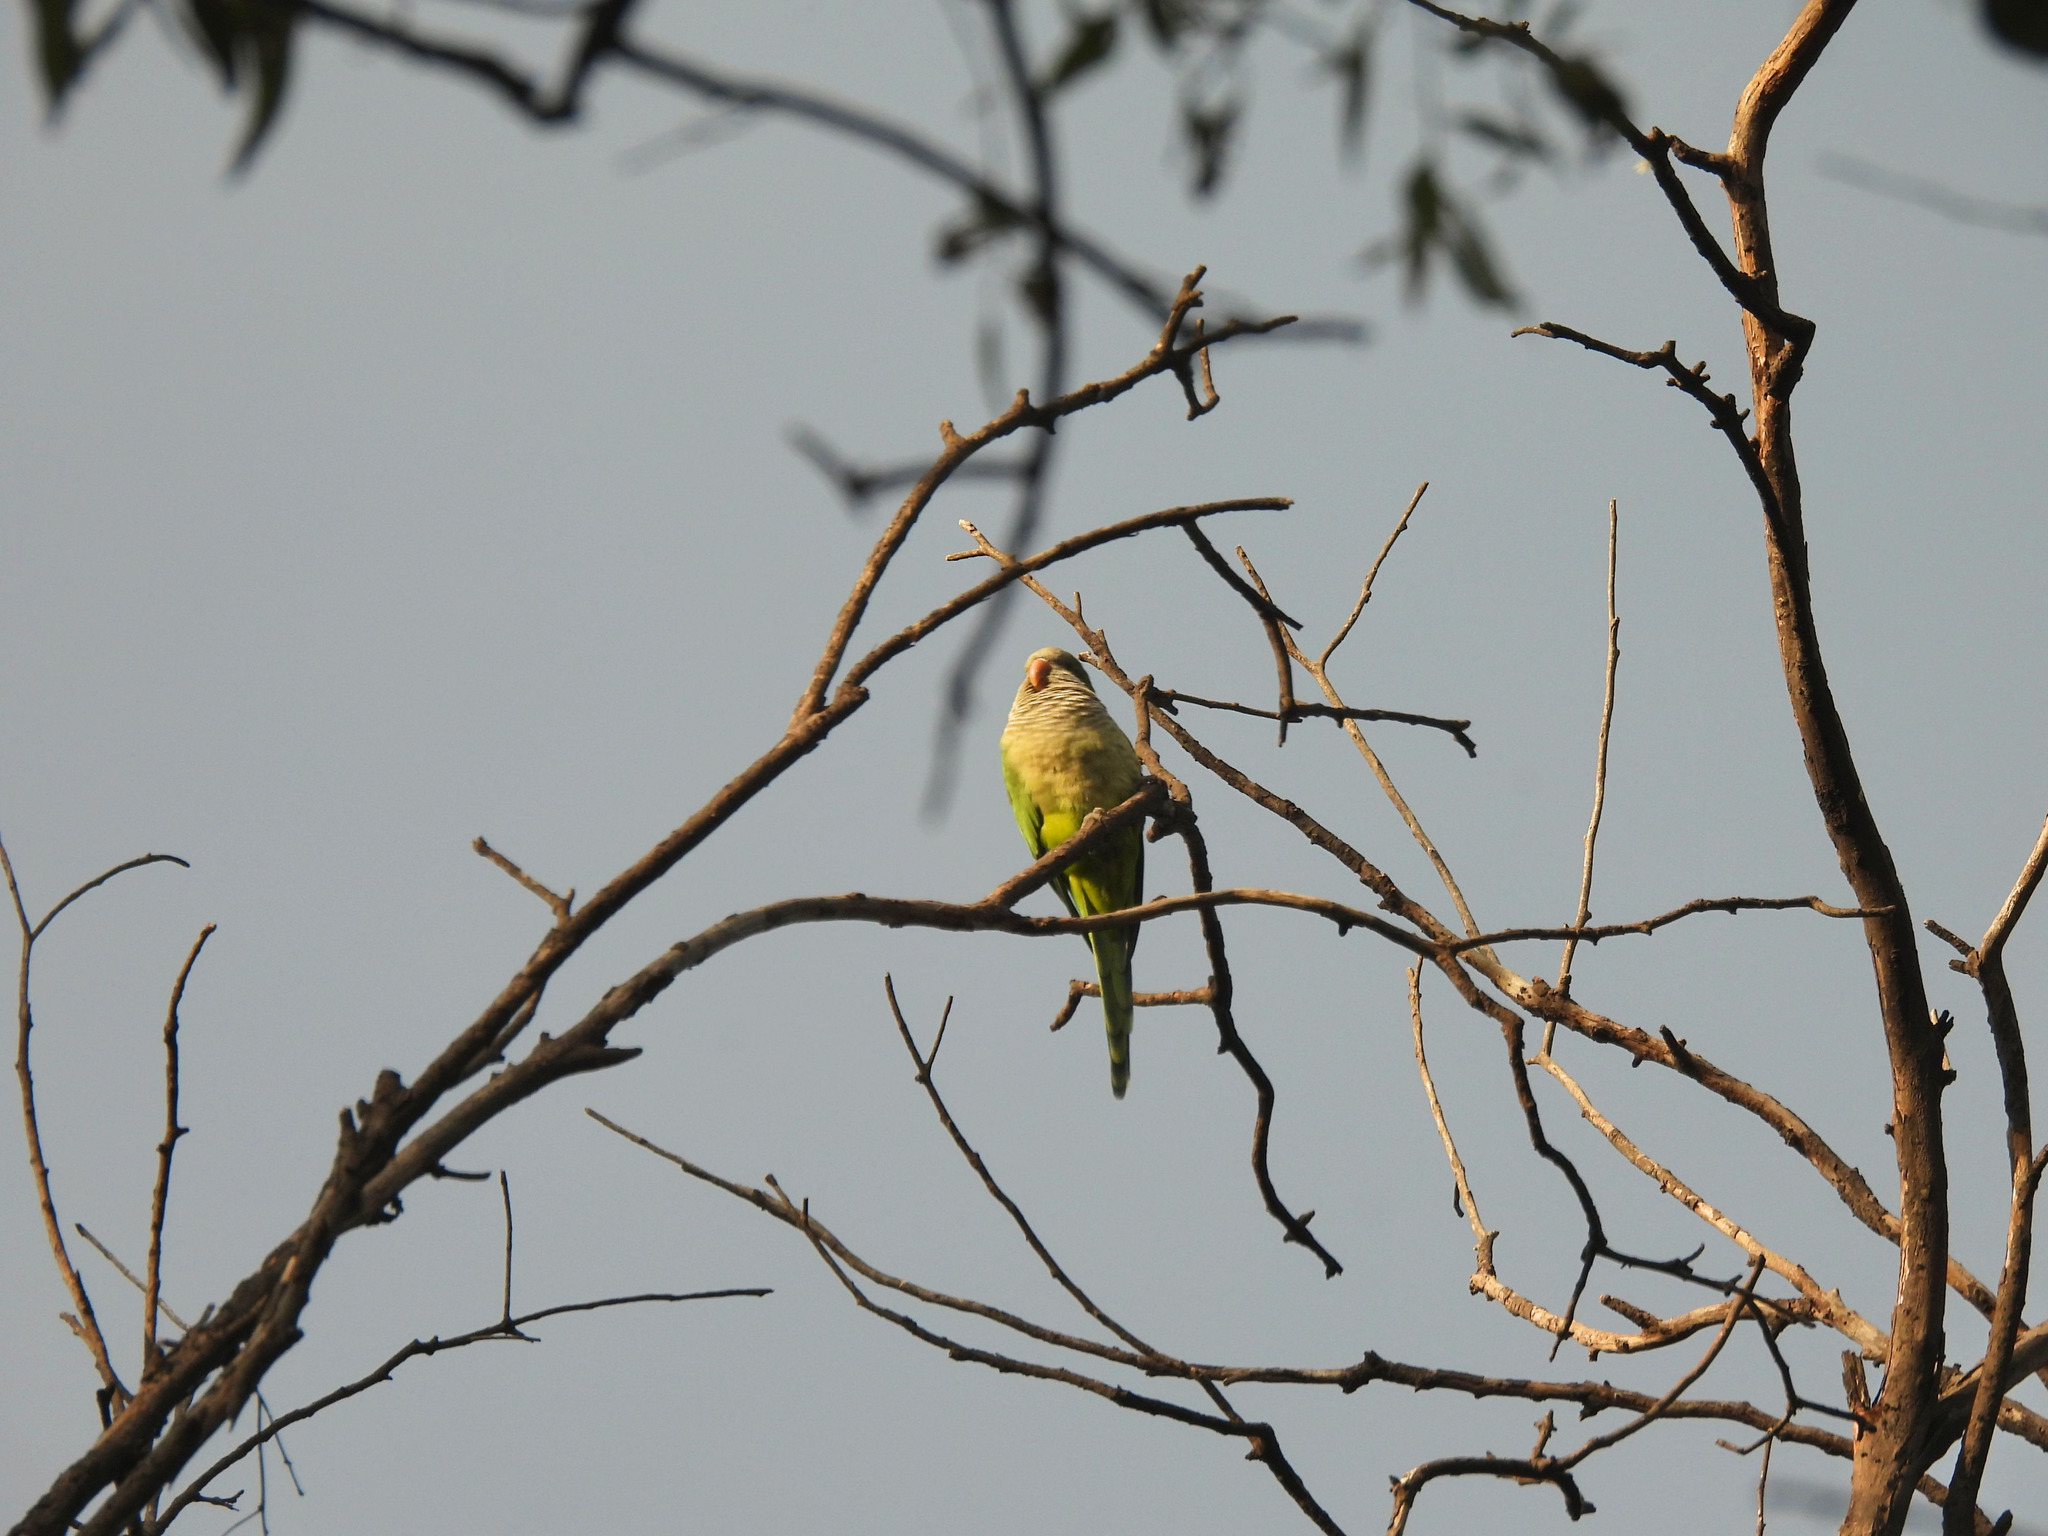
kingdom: Animalia
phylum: Chordata
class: Aves
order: Psittaciformes
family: Psittacidae
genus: Myiopsitta
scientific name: Myiopsitta monachus
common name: Monk parakeet
